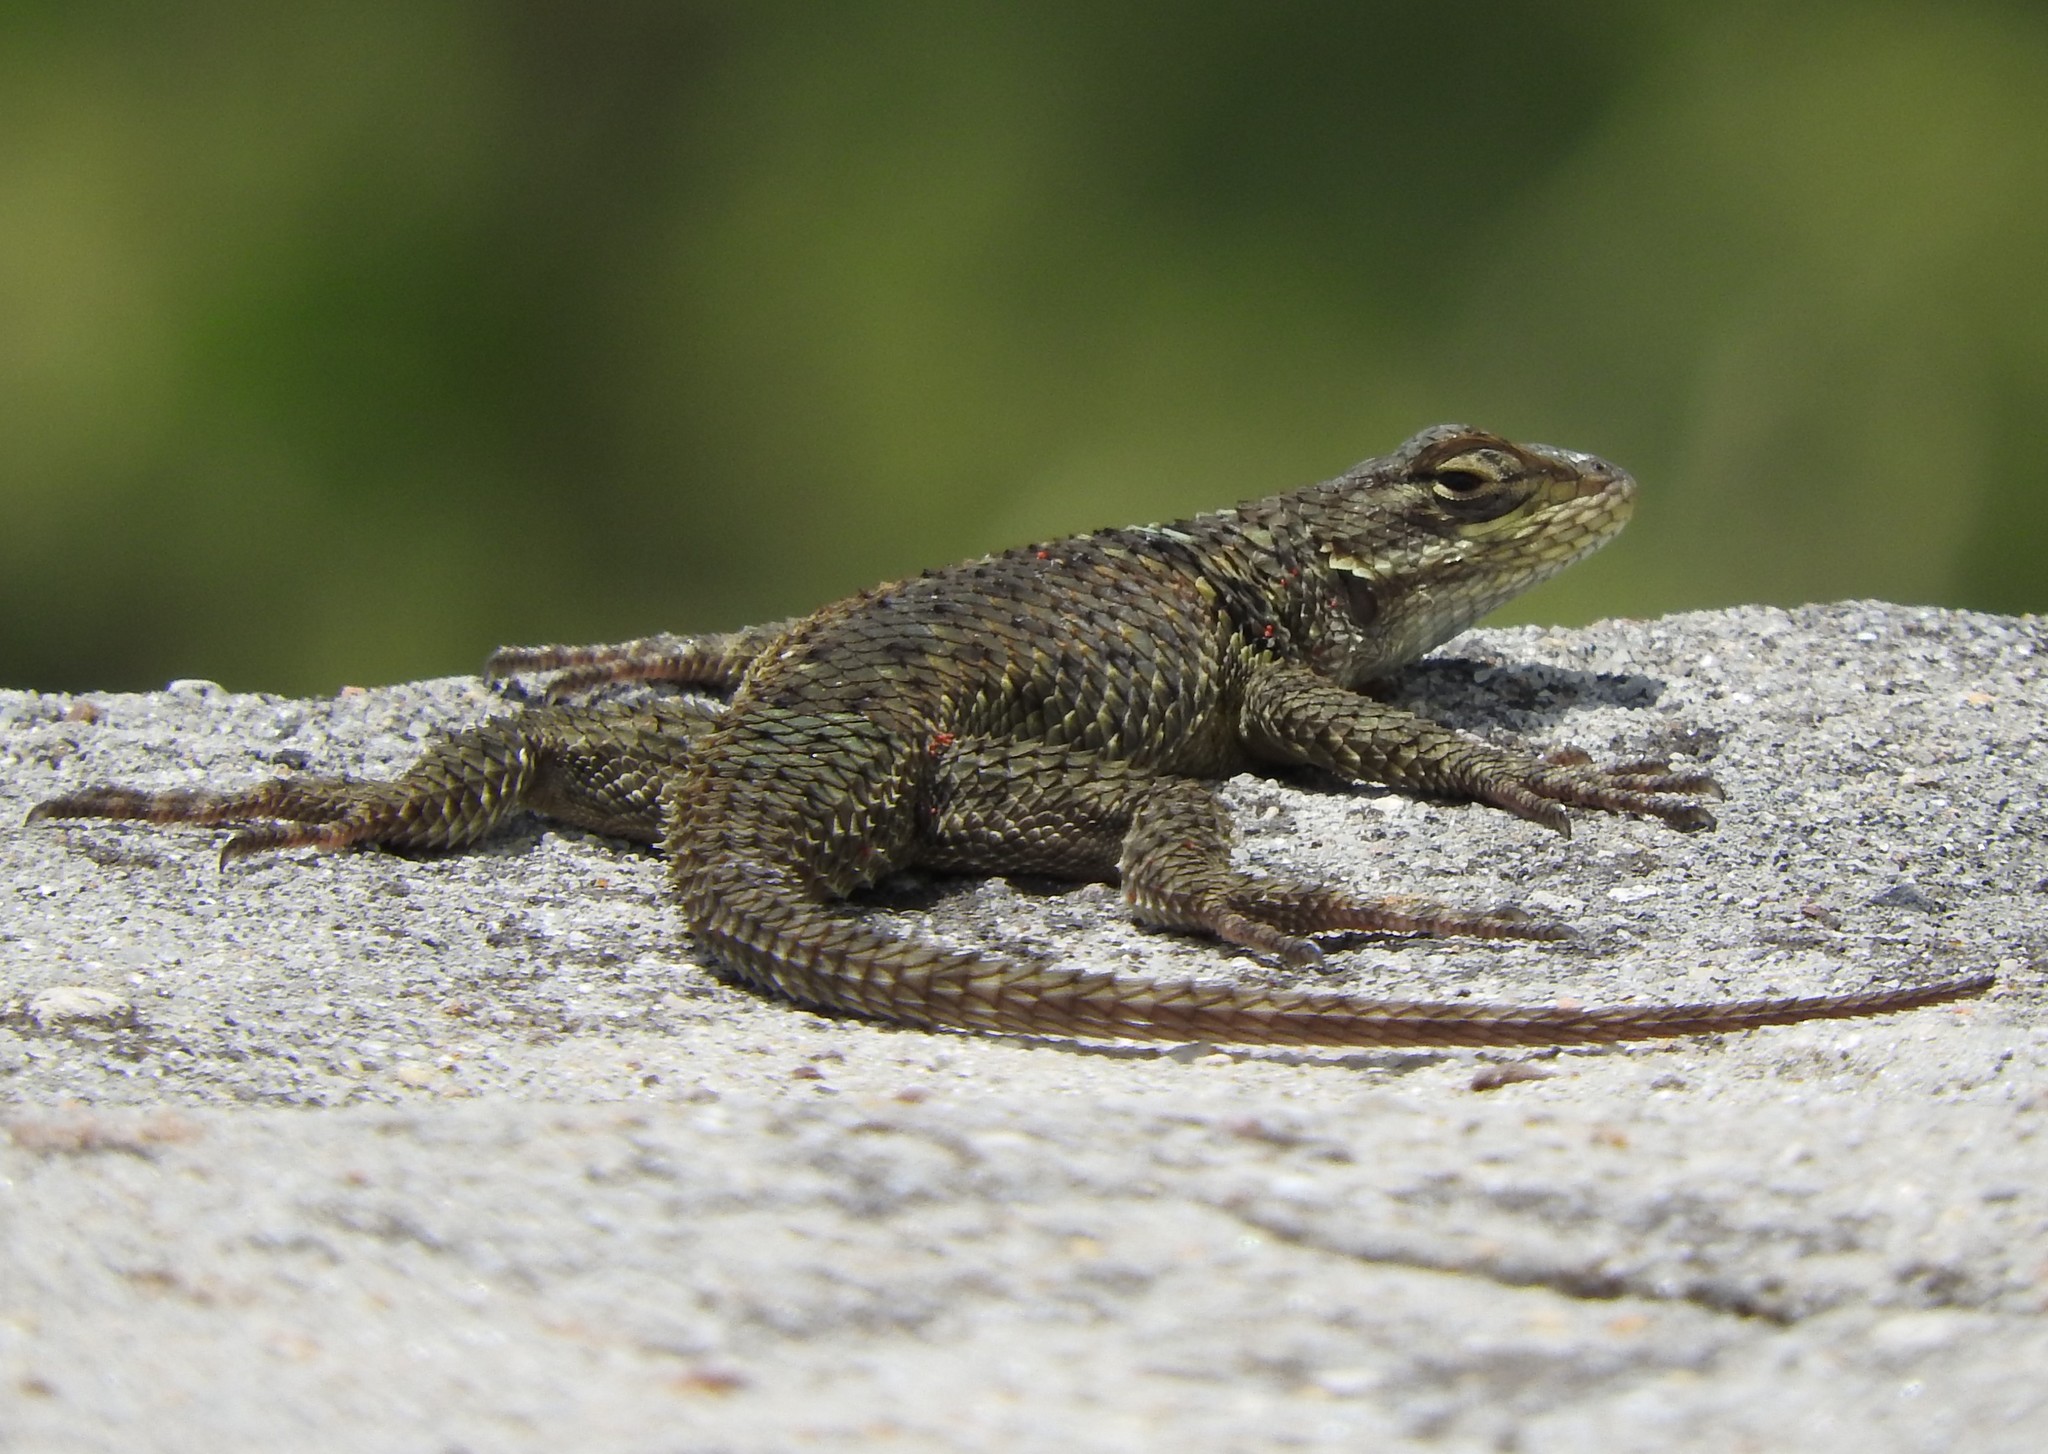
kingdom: Animalia
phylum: Chordata
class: Squamata
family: Phrynosomatidae
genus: Sceloporus
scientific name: Sceloporus torquatus
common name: Central plateau torquate lizard [melanogaster]
